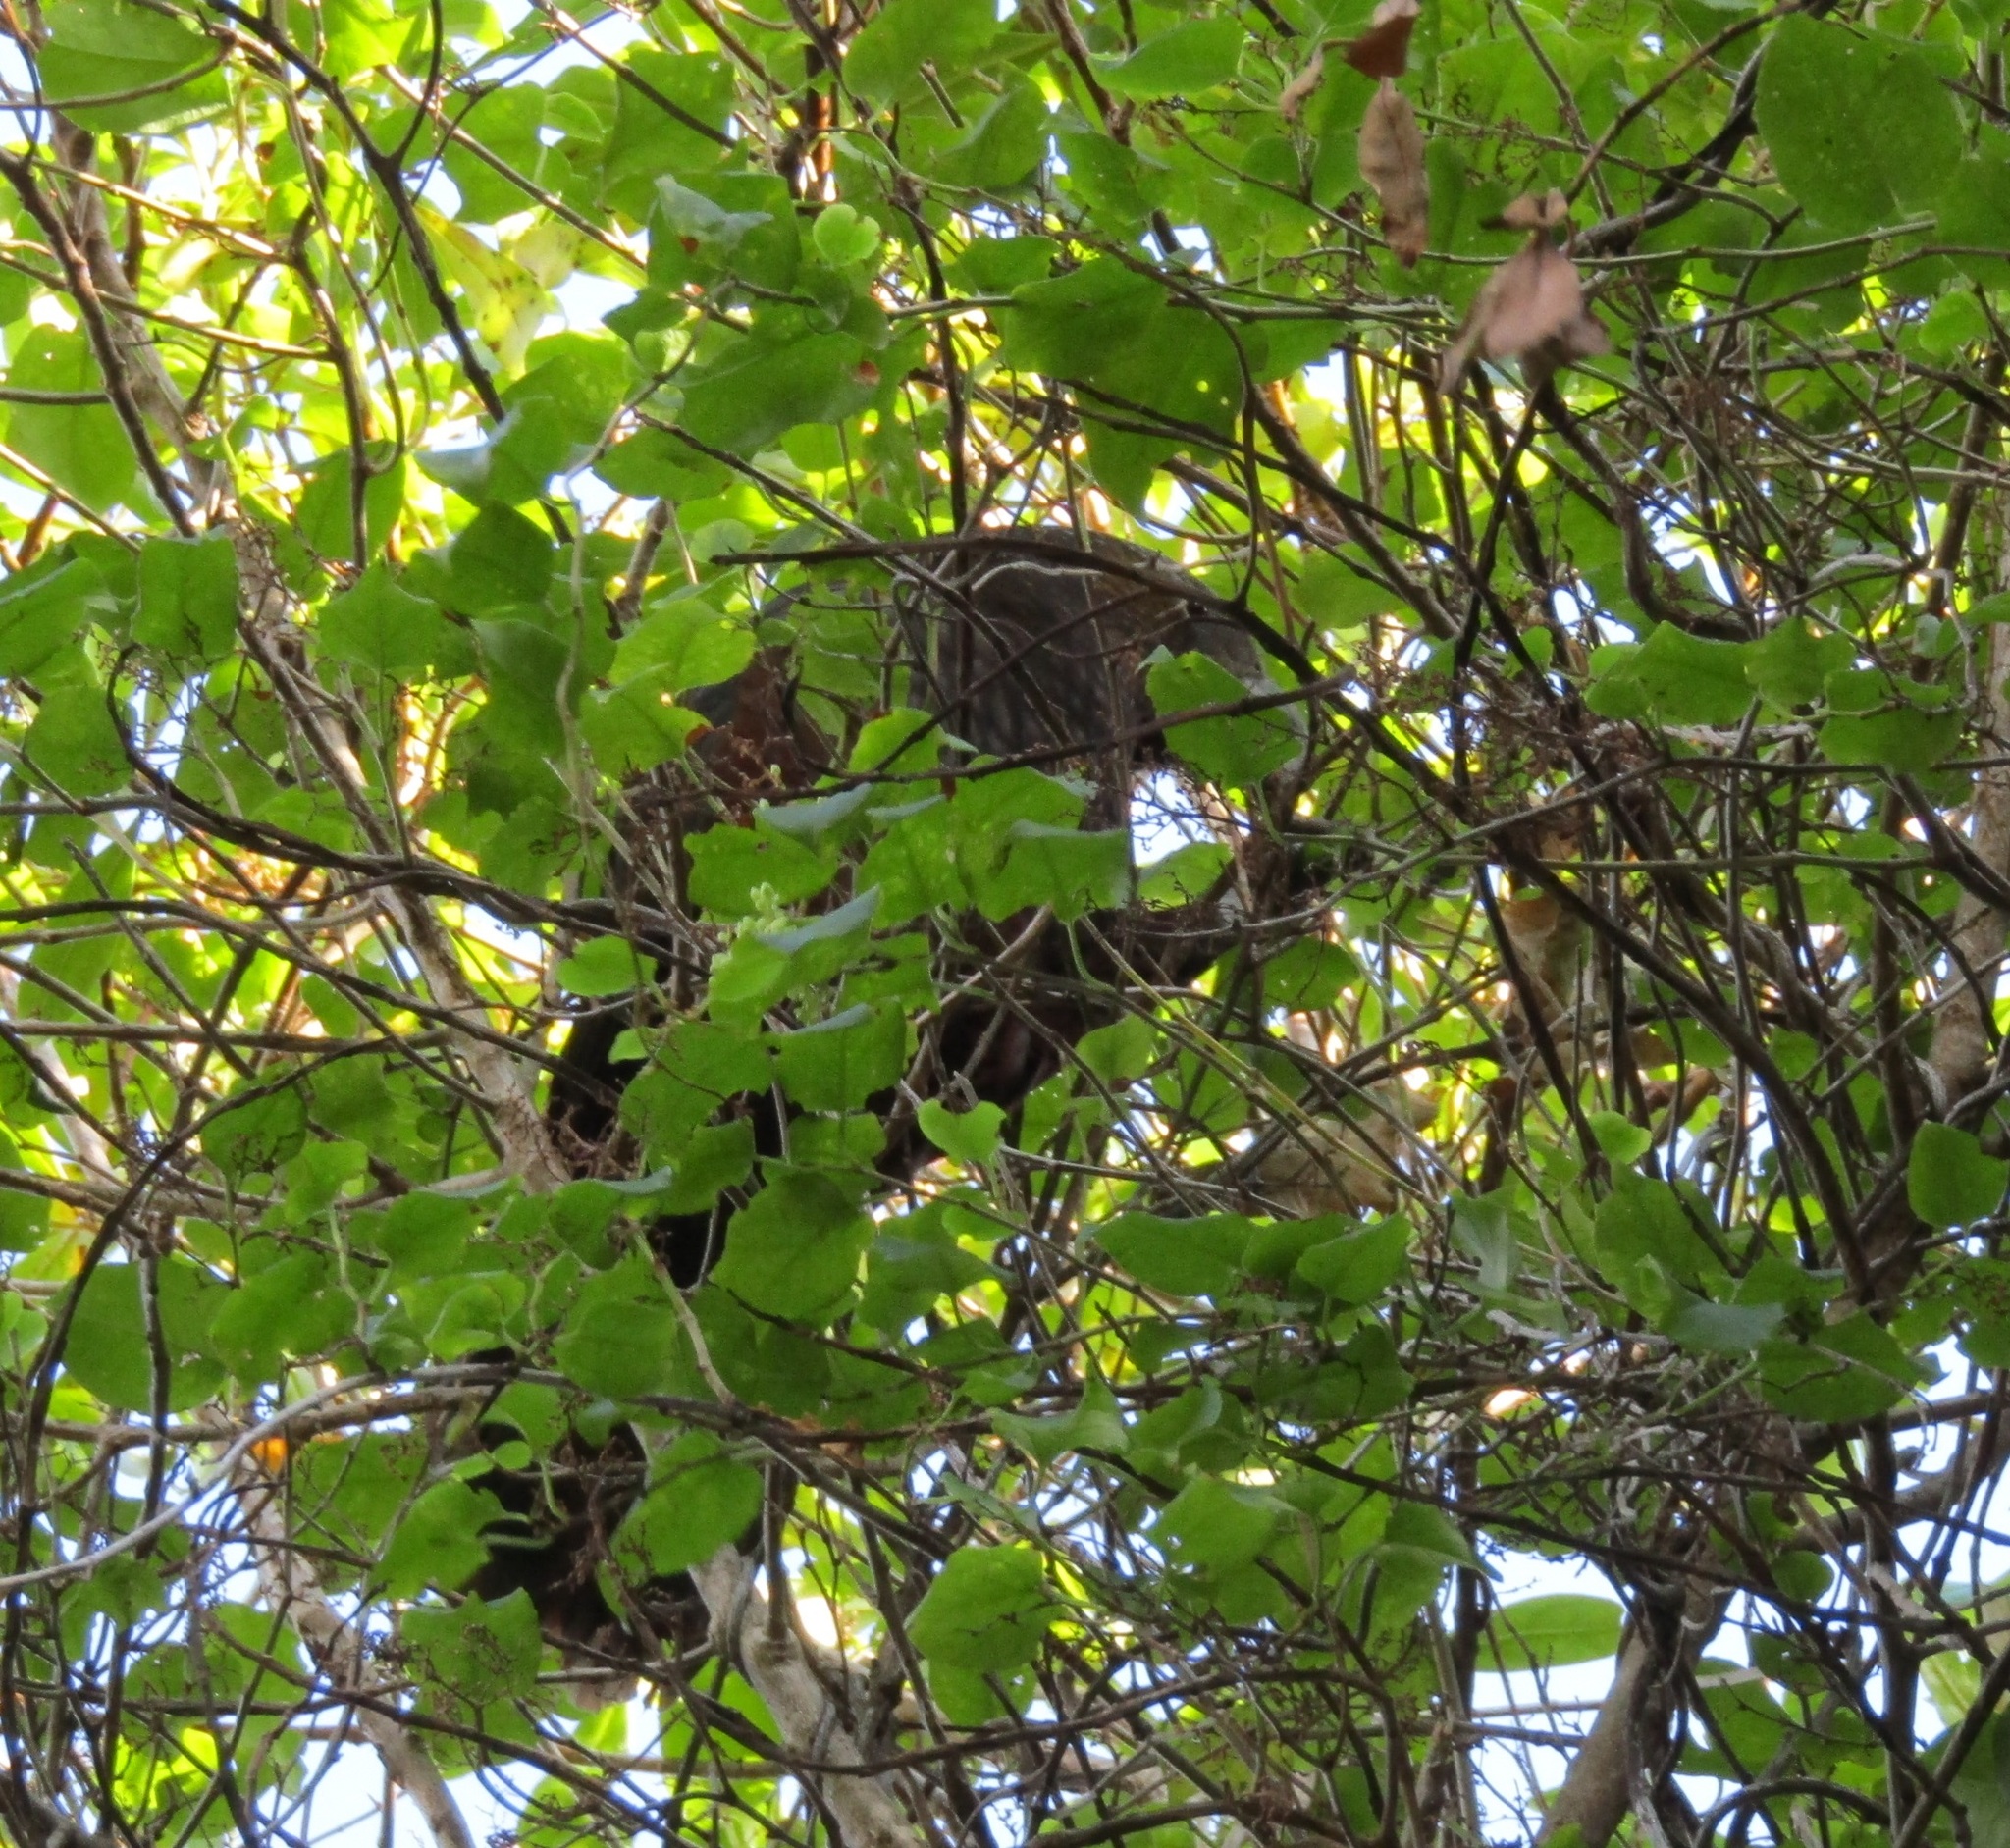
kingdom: Animalia
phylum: Chordata
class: Aves
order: Psittaciformes
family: Psittacidae
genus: Nestor
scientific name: Nestor meridionalis
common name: New zealand kaka
